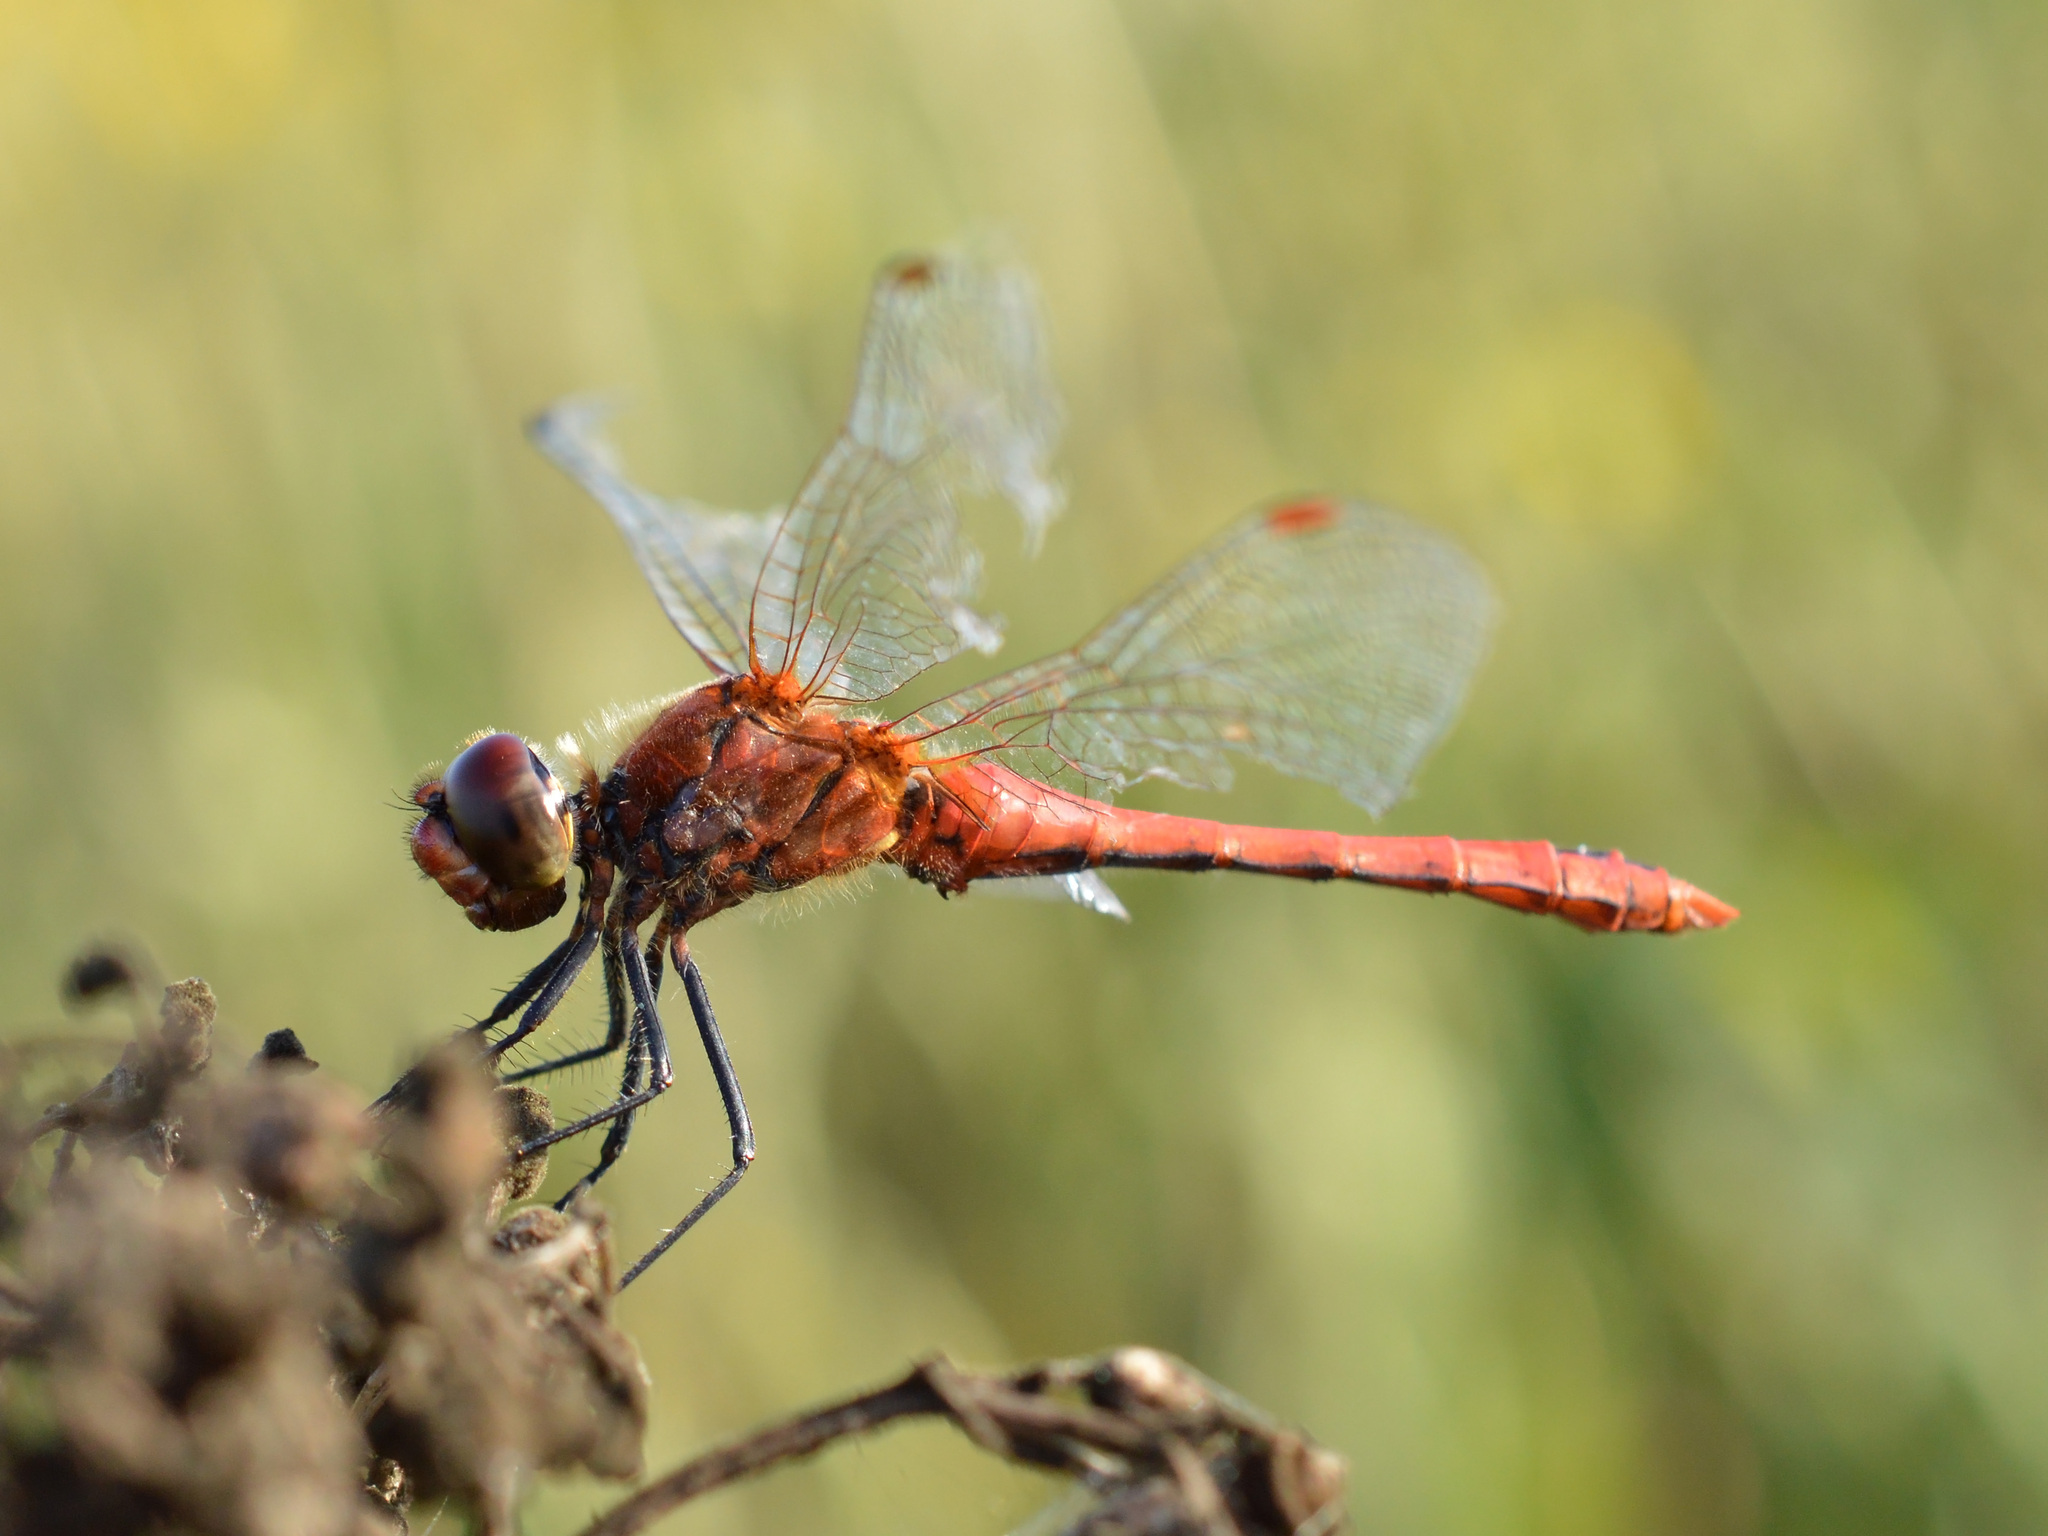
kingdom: Animalia
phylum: Arthropoda
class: Insecta
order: Odonata
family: Libellulidae
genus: Sympetrum
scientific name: Sympetrum sanguineum
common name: Ruddy darter
